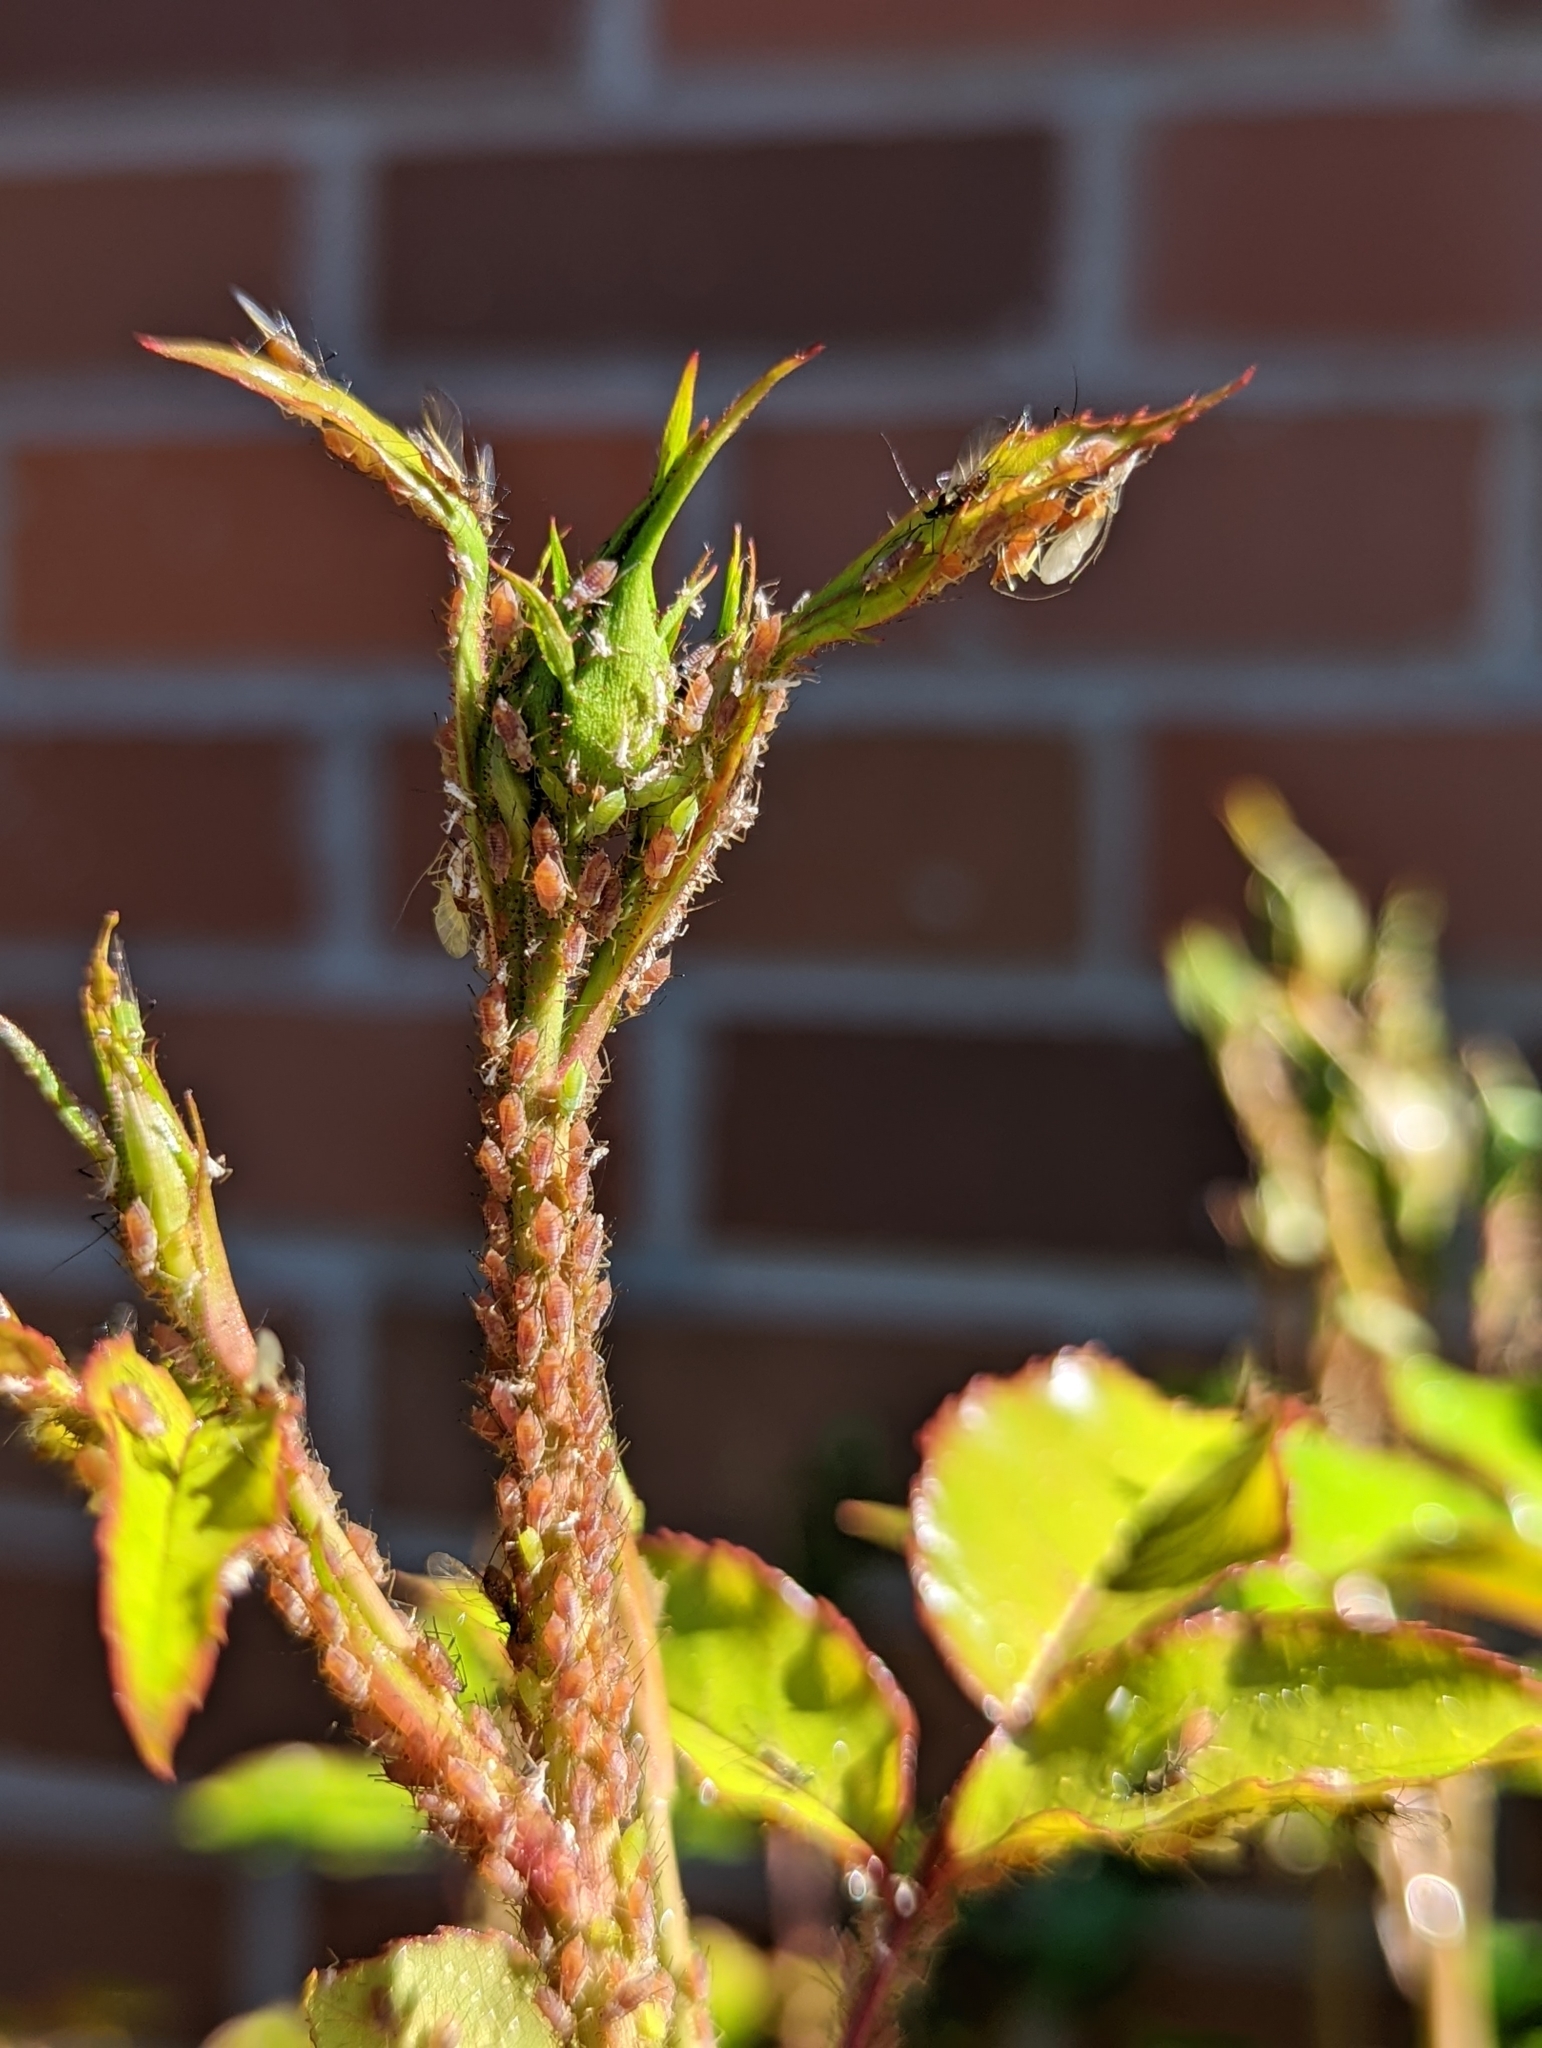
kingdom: Animalia
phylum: Arthropoda
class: Insecta
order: Hemiptera
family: Aphididae
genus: Macrosiphum
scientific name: Macrosiphum rosae
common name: Rose aphid
